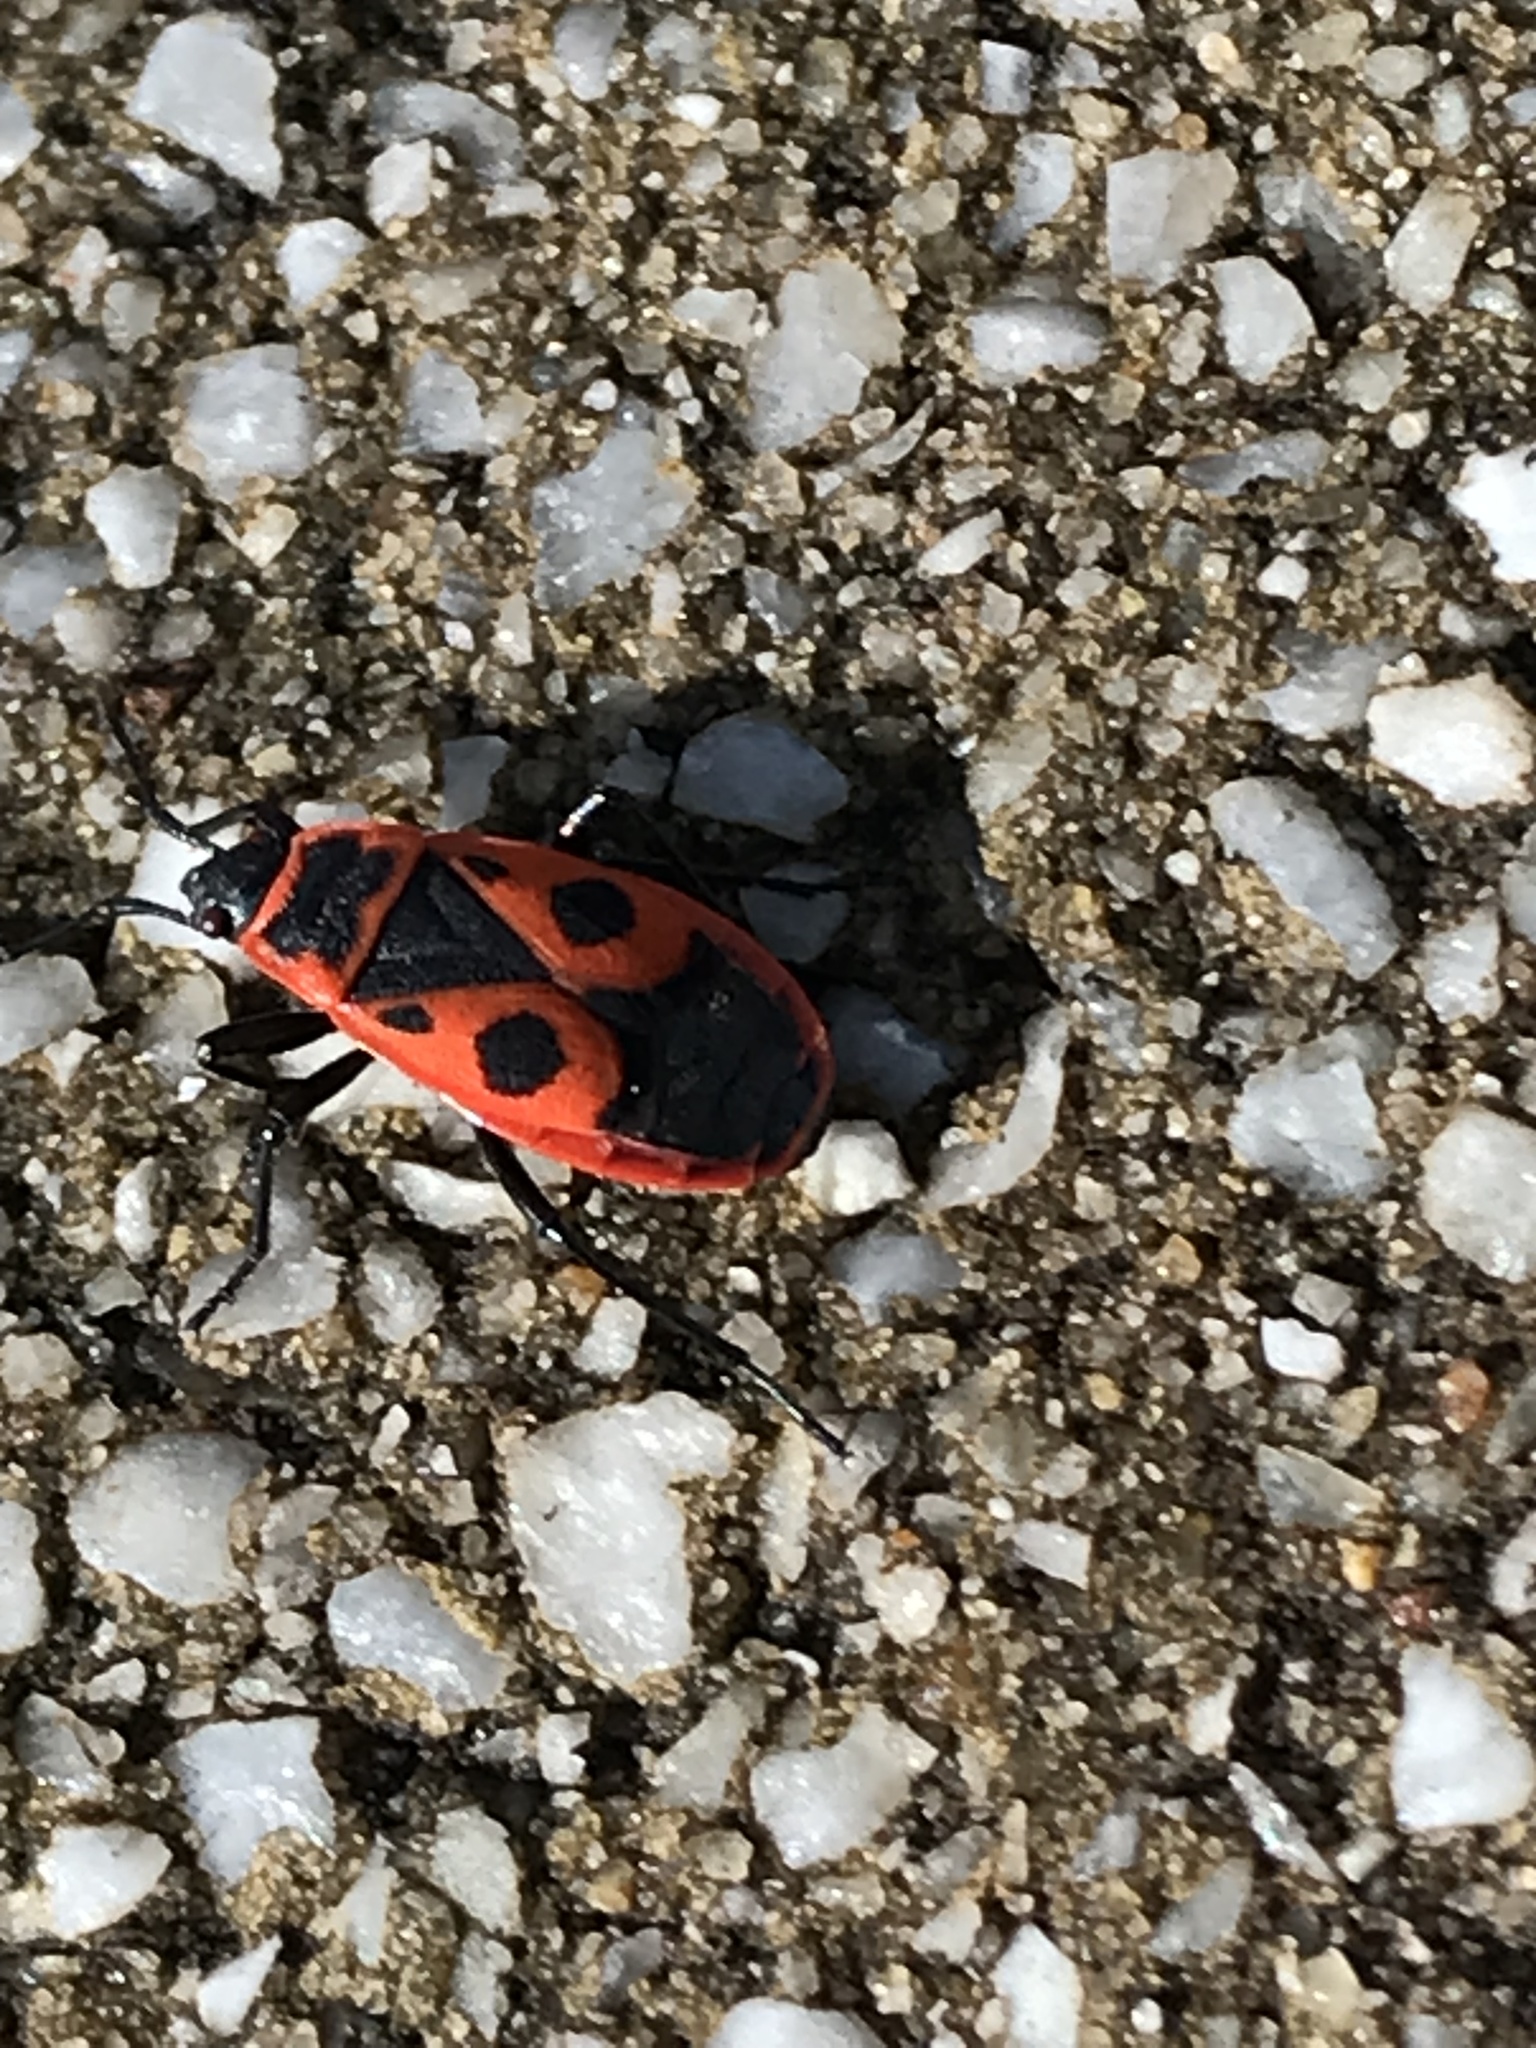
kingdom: Animalia
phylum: Arthropoda
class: Insecta
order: Hemiptera
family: Pyrrhocoridae
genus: Pyrrhocoris
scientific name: Pyrrhocoris apterus
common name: Firebug
